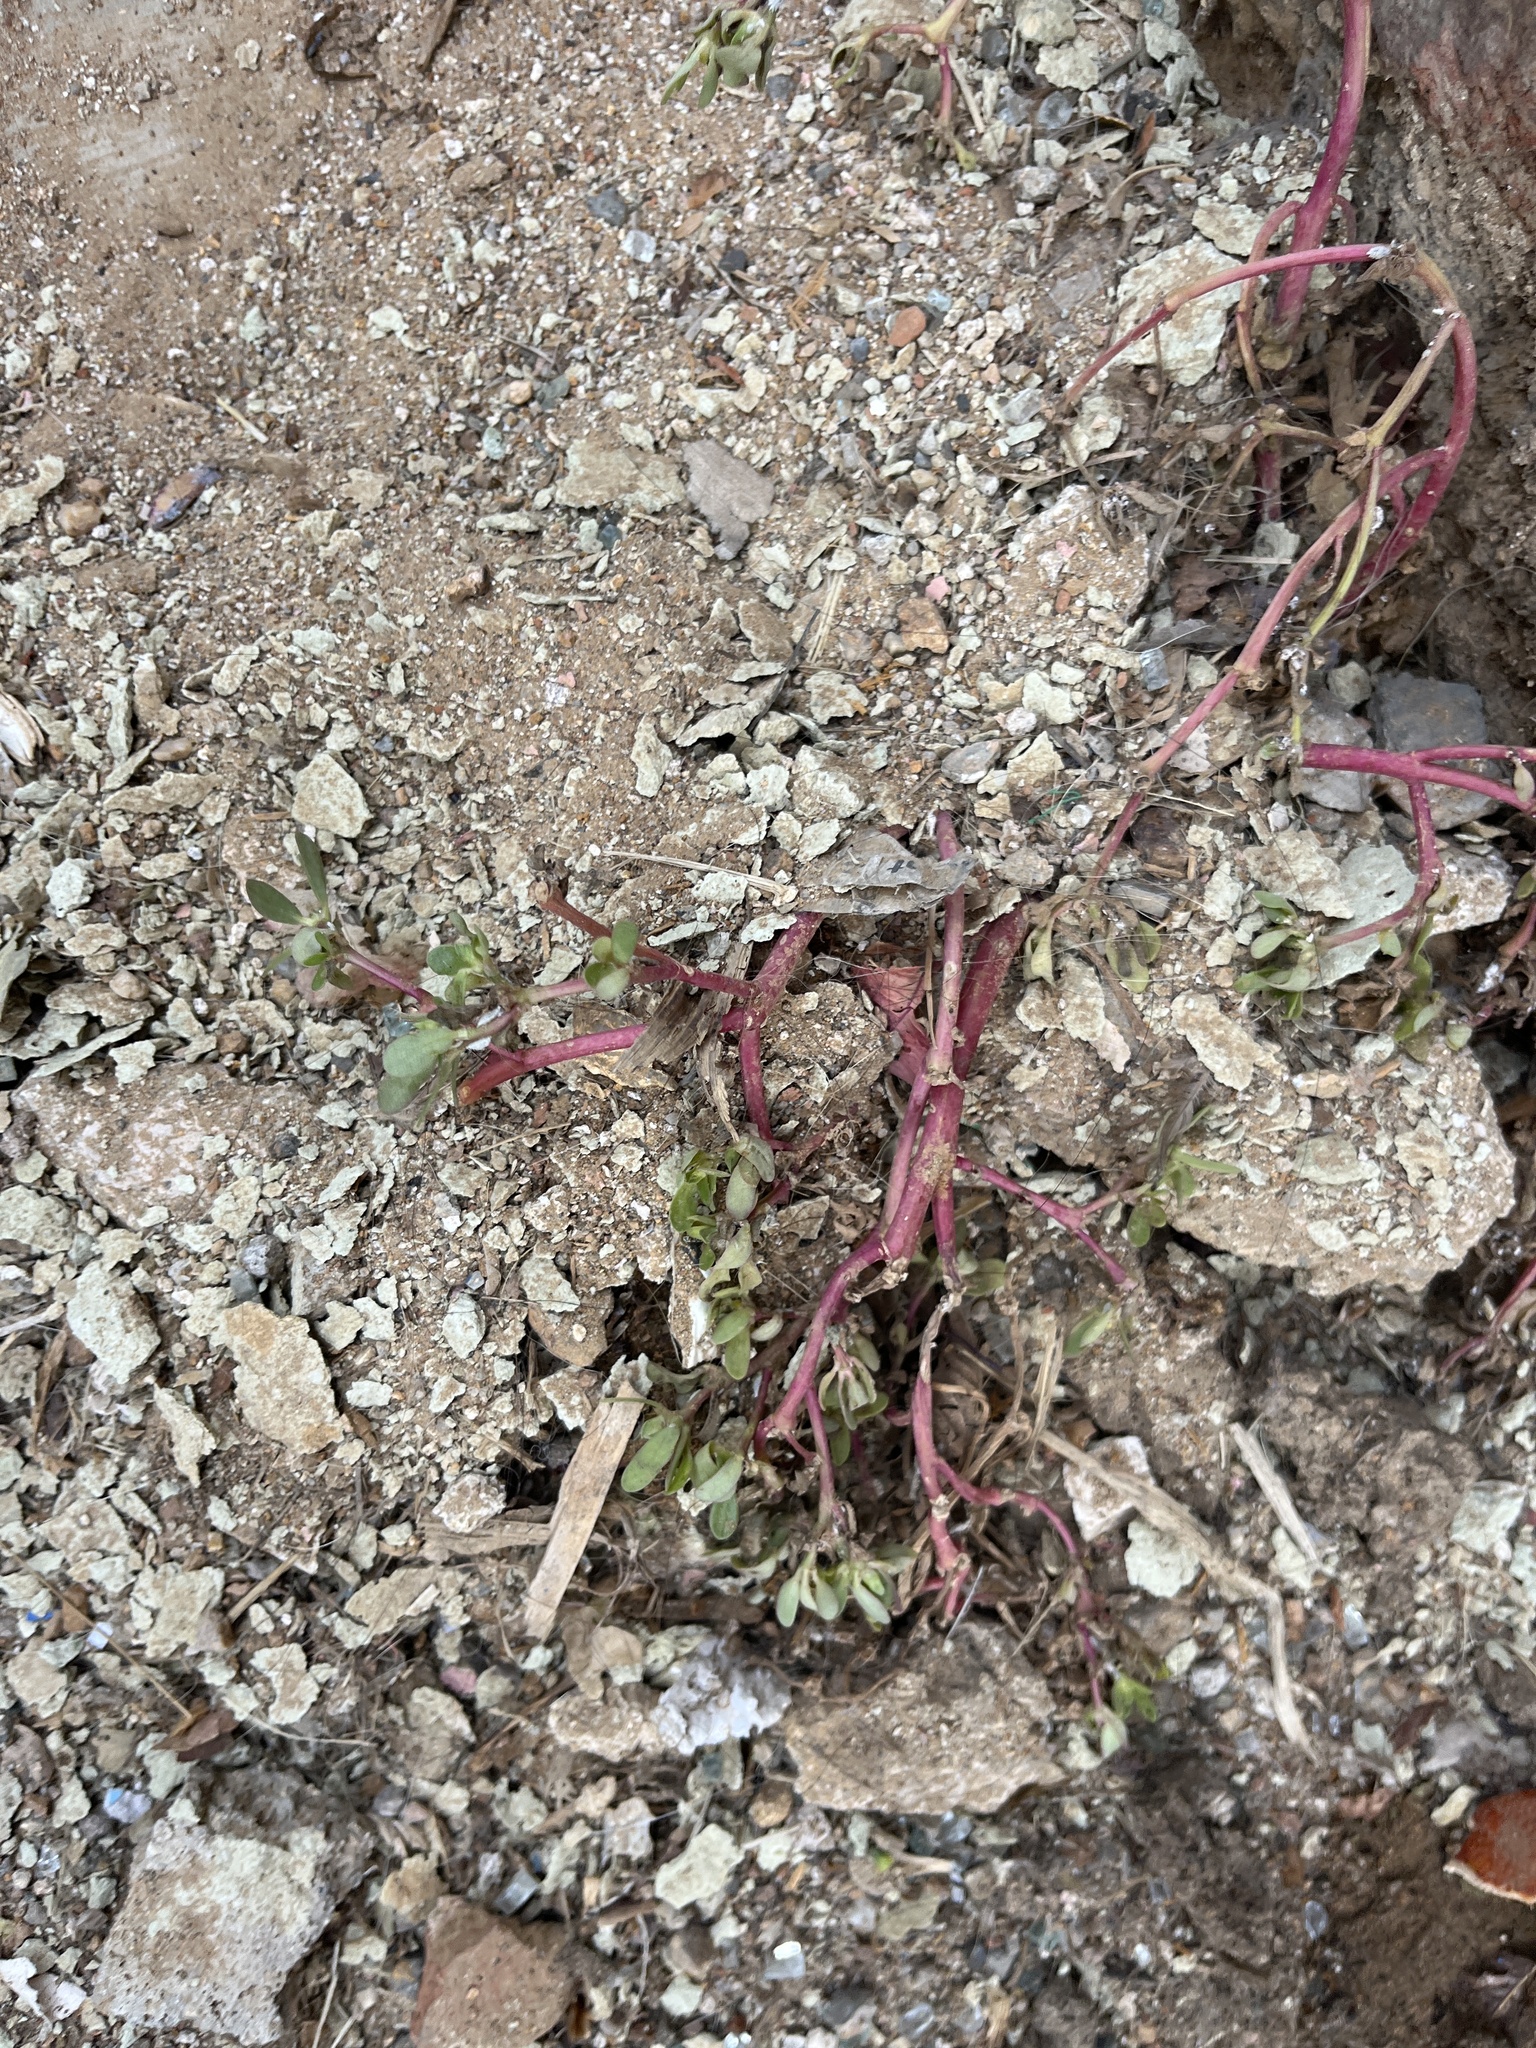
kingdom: Plantae
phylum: Tracheophyta
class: Magnoliopsida
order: Caryophyllales
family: Portulacaceae
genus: Portulaca
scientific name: Portulaca oleracea
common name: Common purslane
